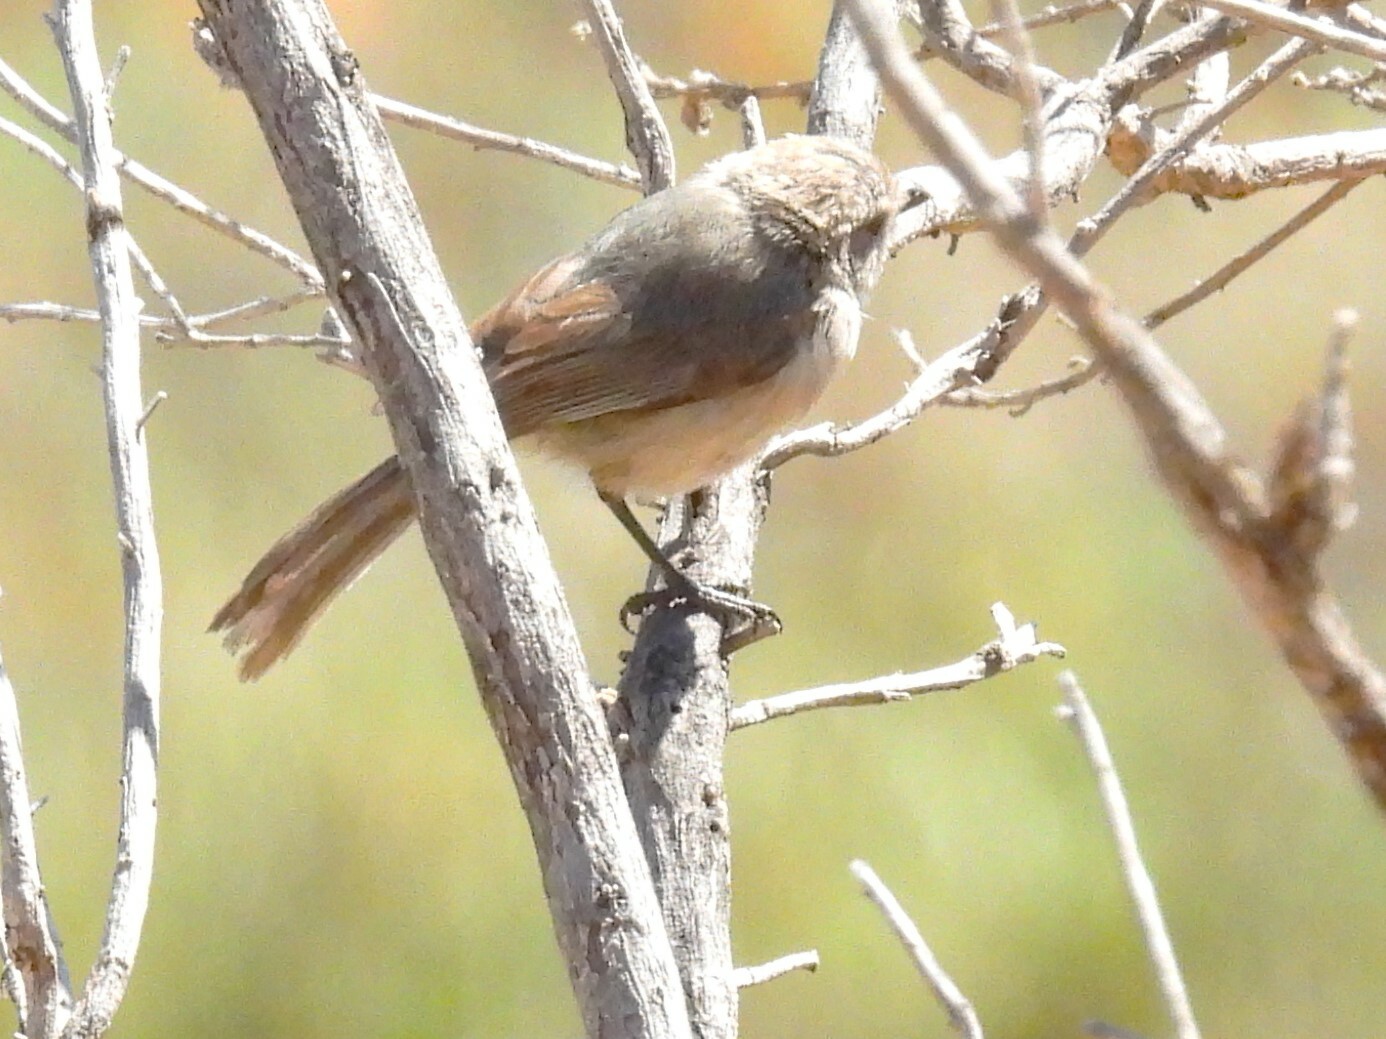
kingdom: Animalia
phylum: Chordata
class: Aves
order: Passeriformes
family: Aegithalidae
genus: Psaltriparus
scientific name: Psaltriparus minimus
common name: American bushtit
